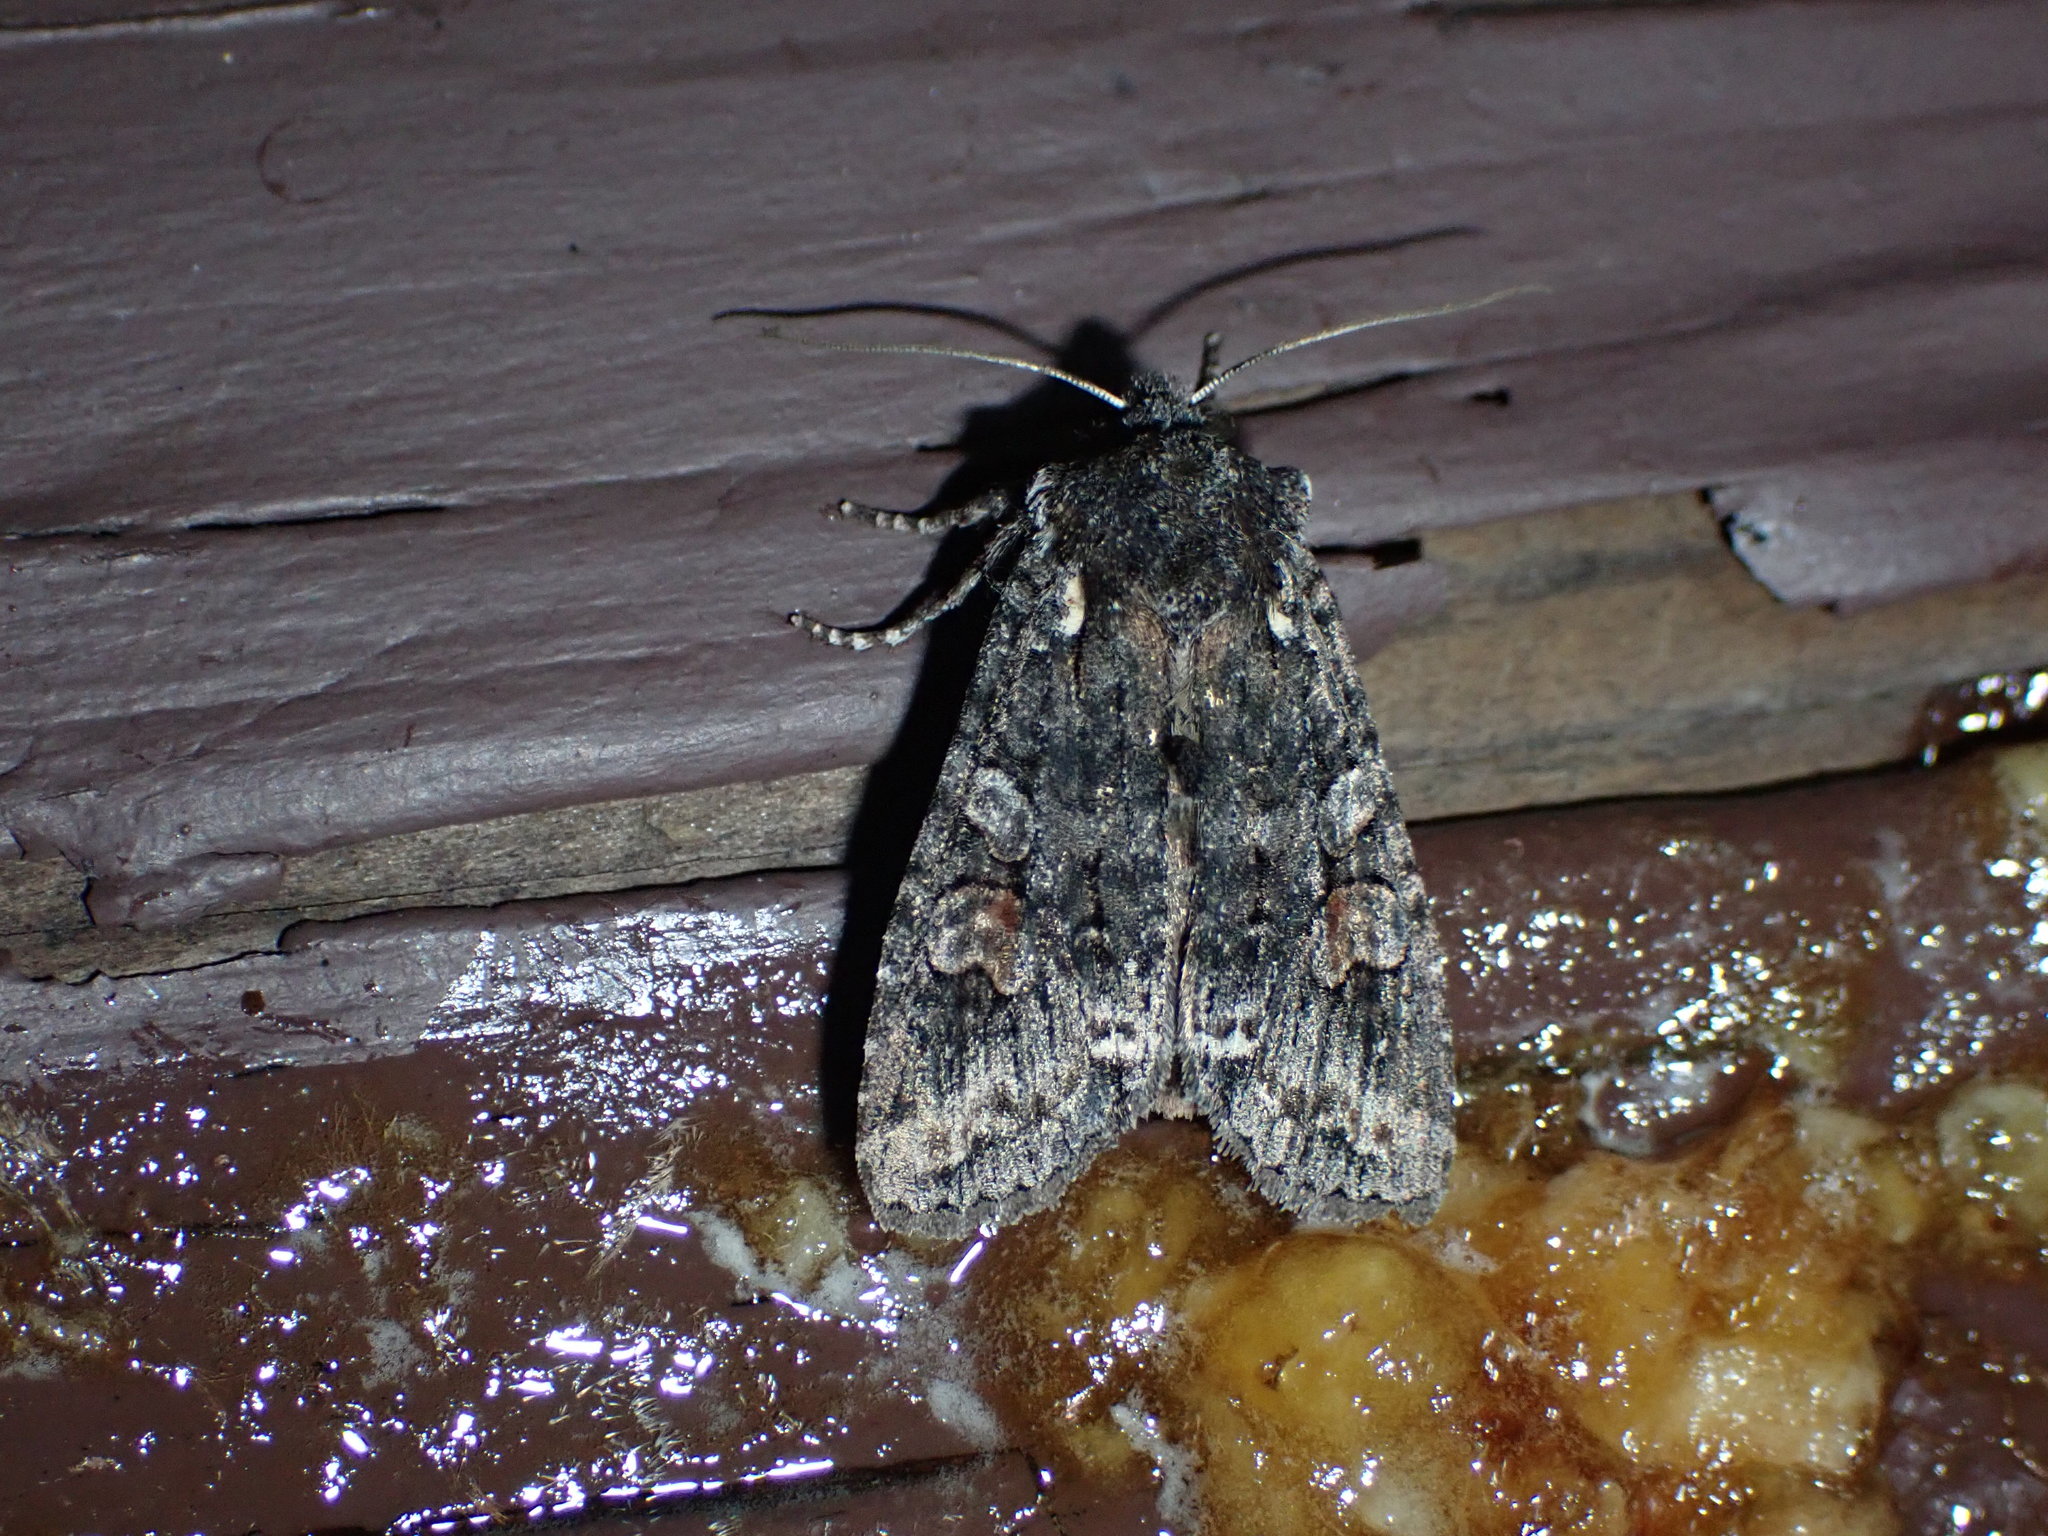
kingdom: Animalia
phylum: Arthropoda
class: Insecta
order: Lepidoptera
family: Noctuidae
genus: Lithophane
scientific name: Lithophane pexata
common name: Plush-naped pinion moth
